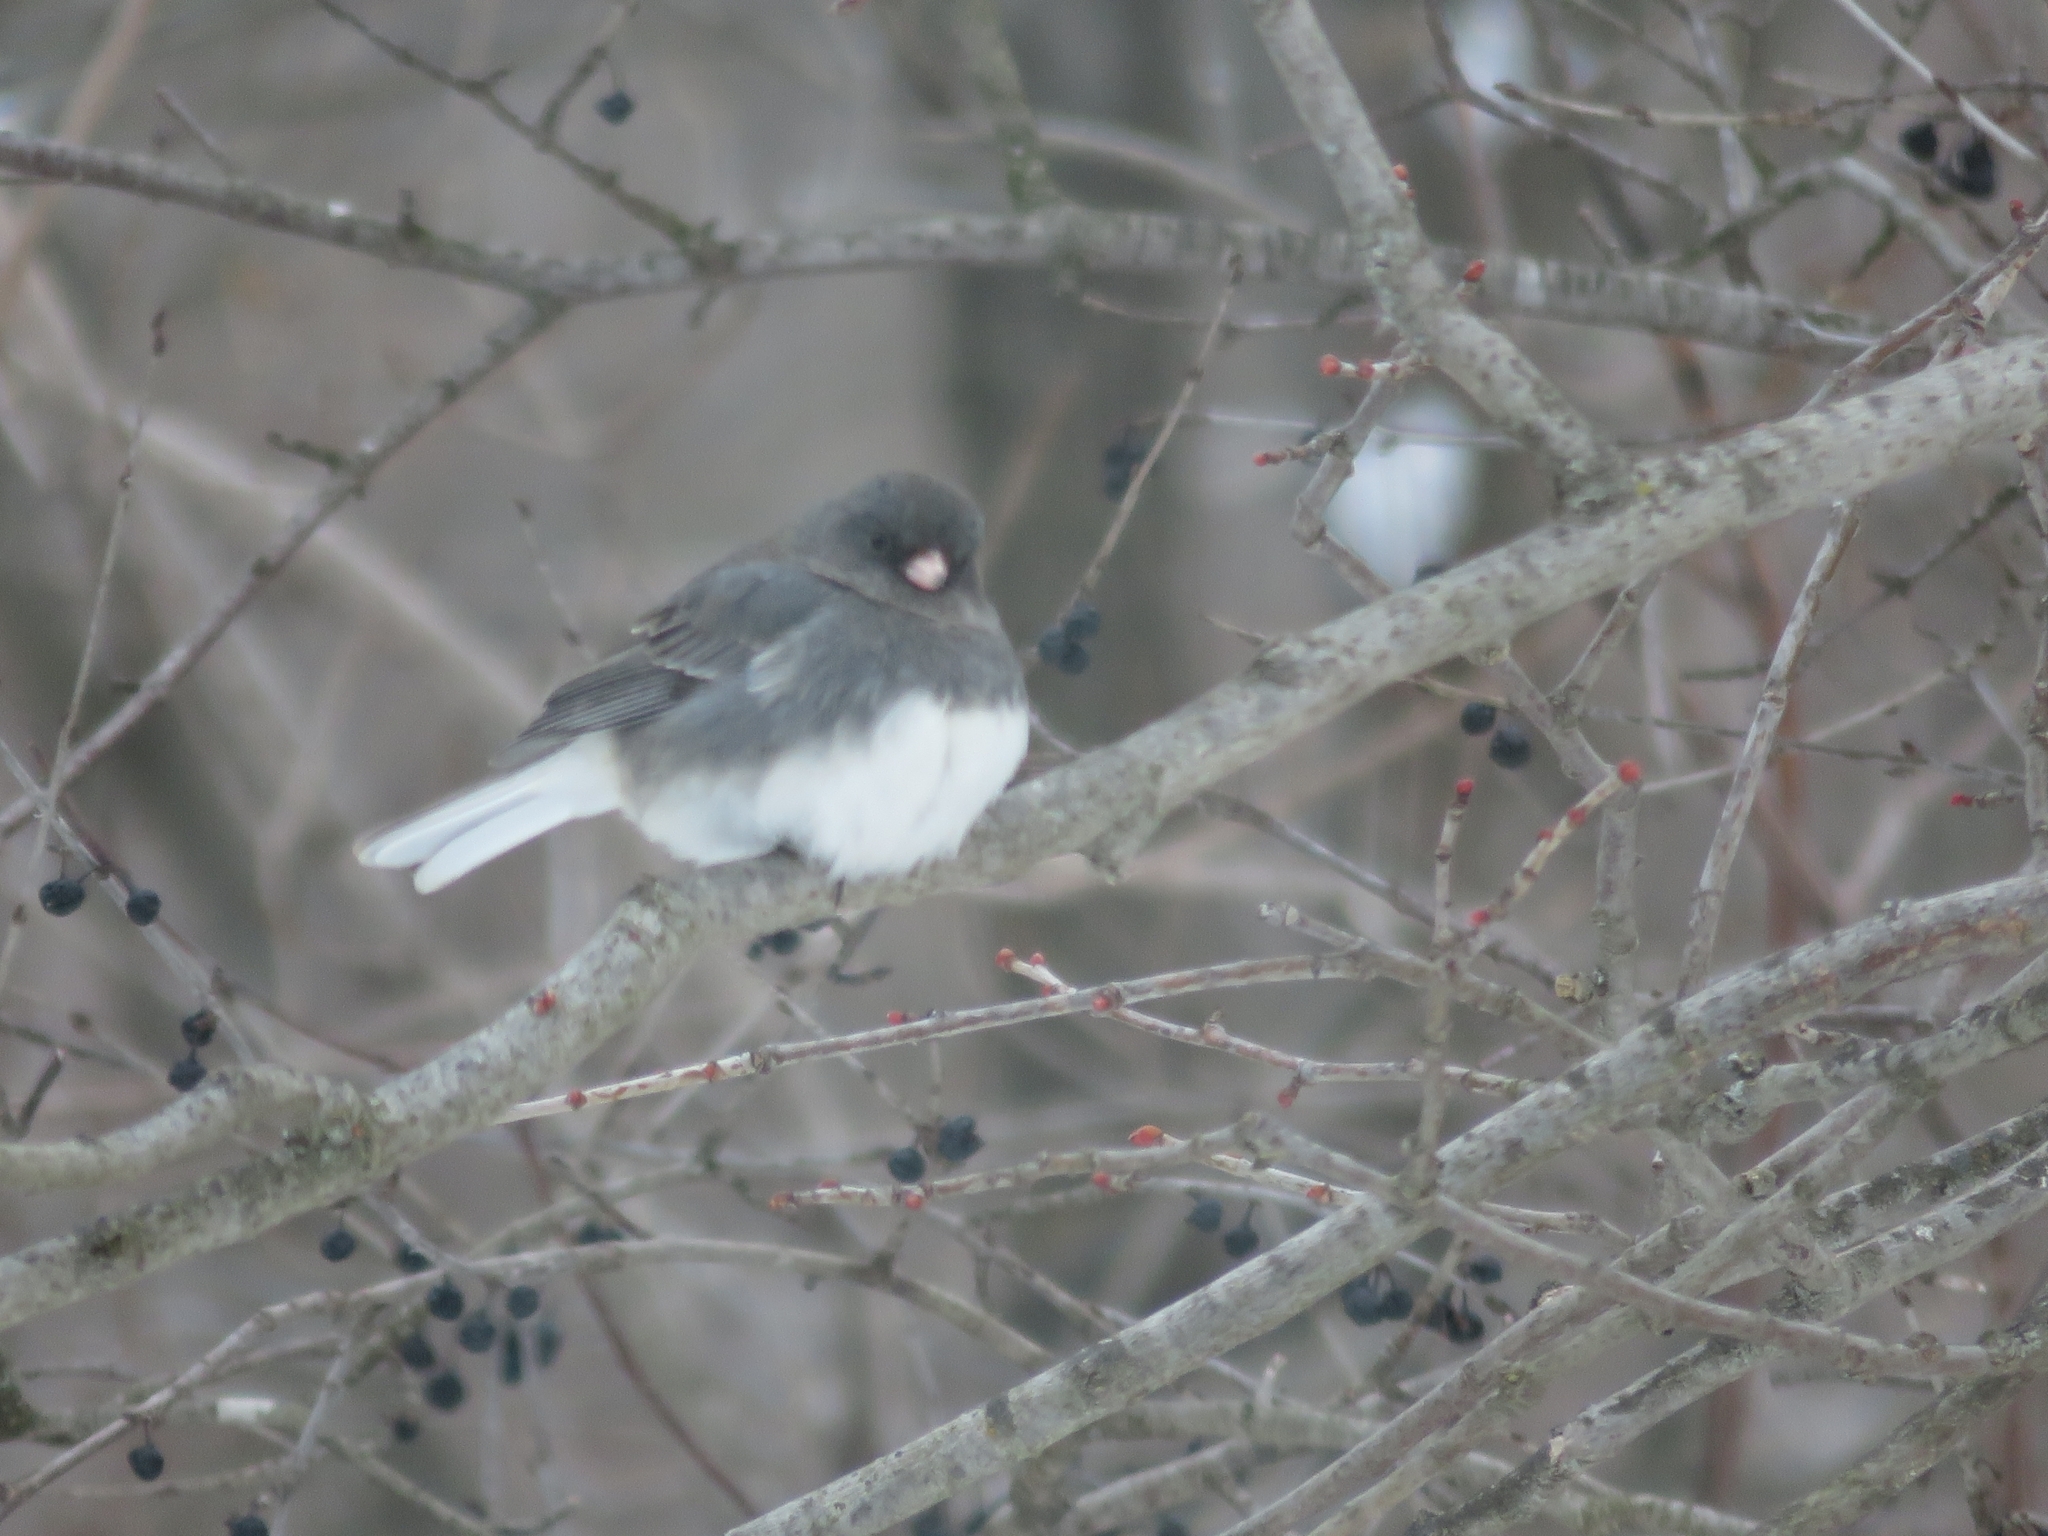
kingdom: Animalia
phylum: Chordata
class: Aves
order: Passeriformes
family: Passerellidae
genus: Junco
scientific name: Junco hyemalis
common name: Dark-eyed junco
